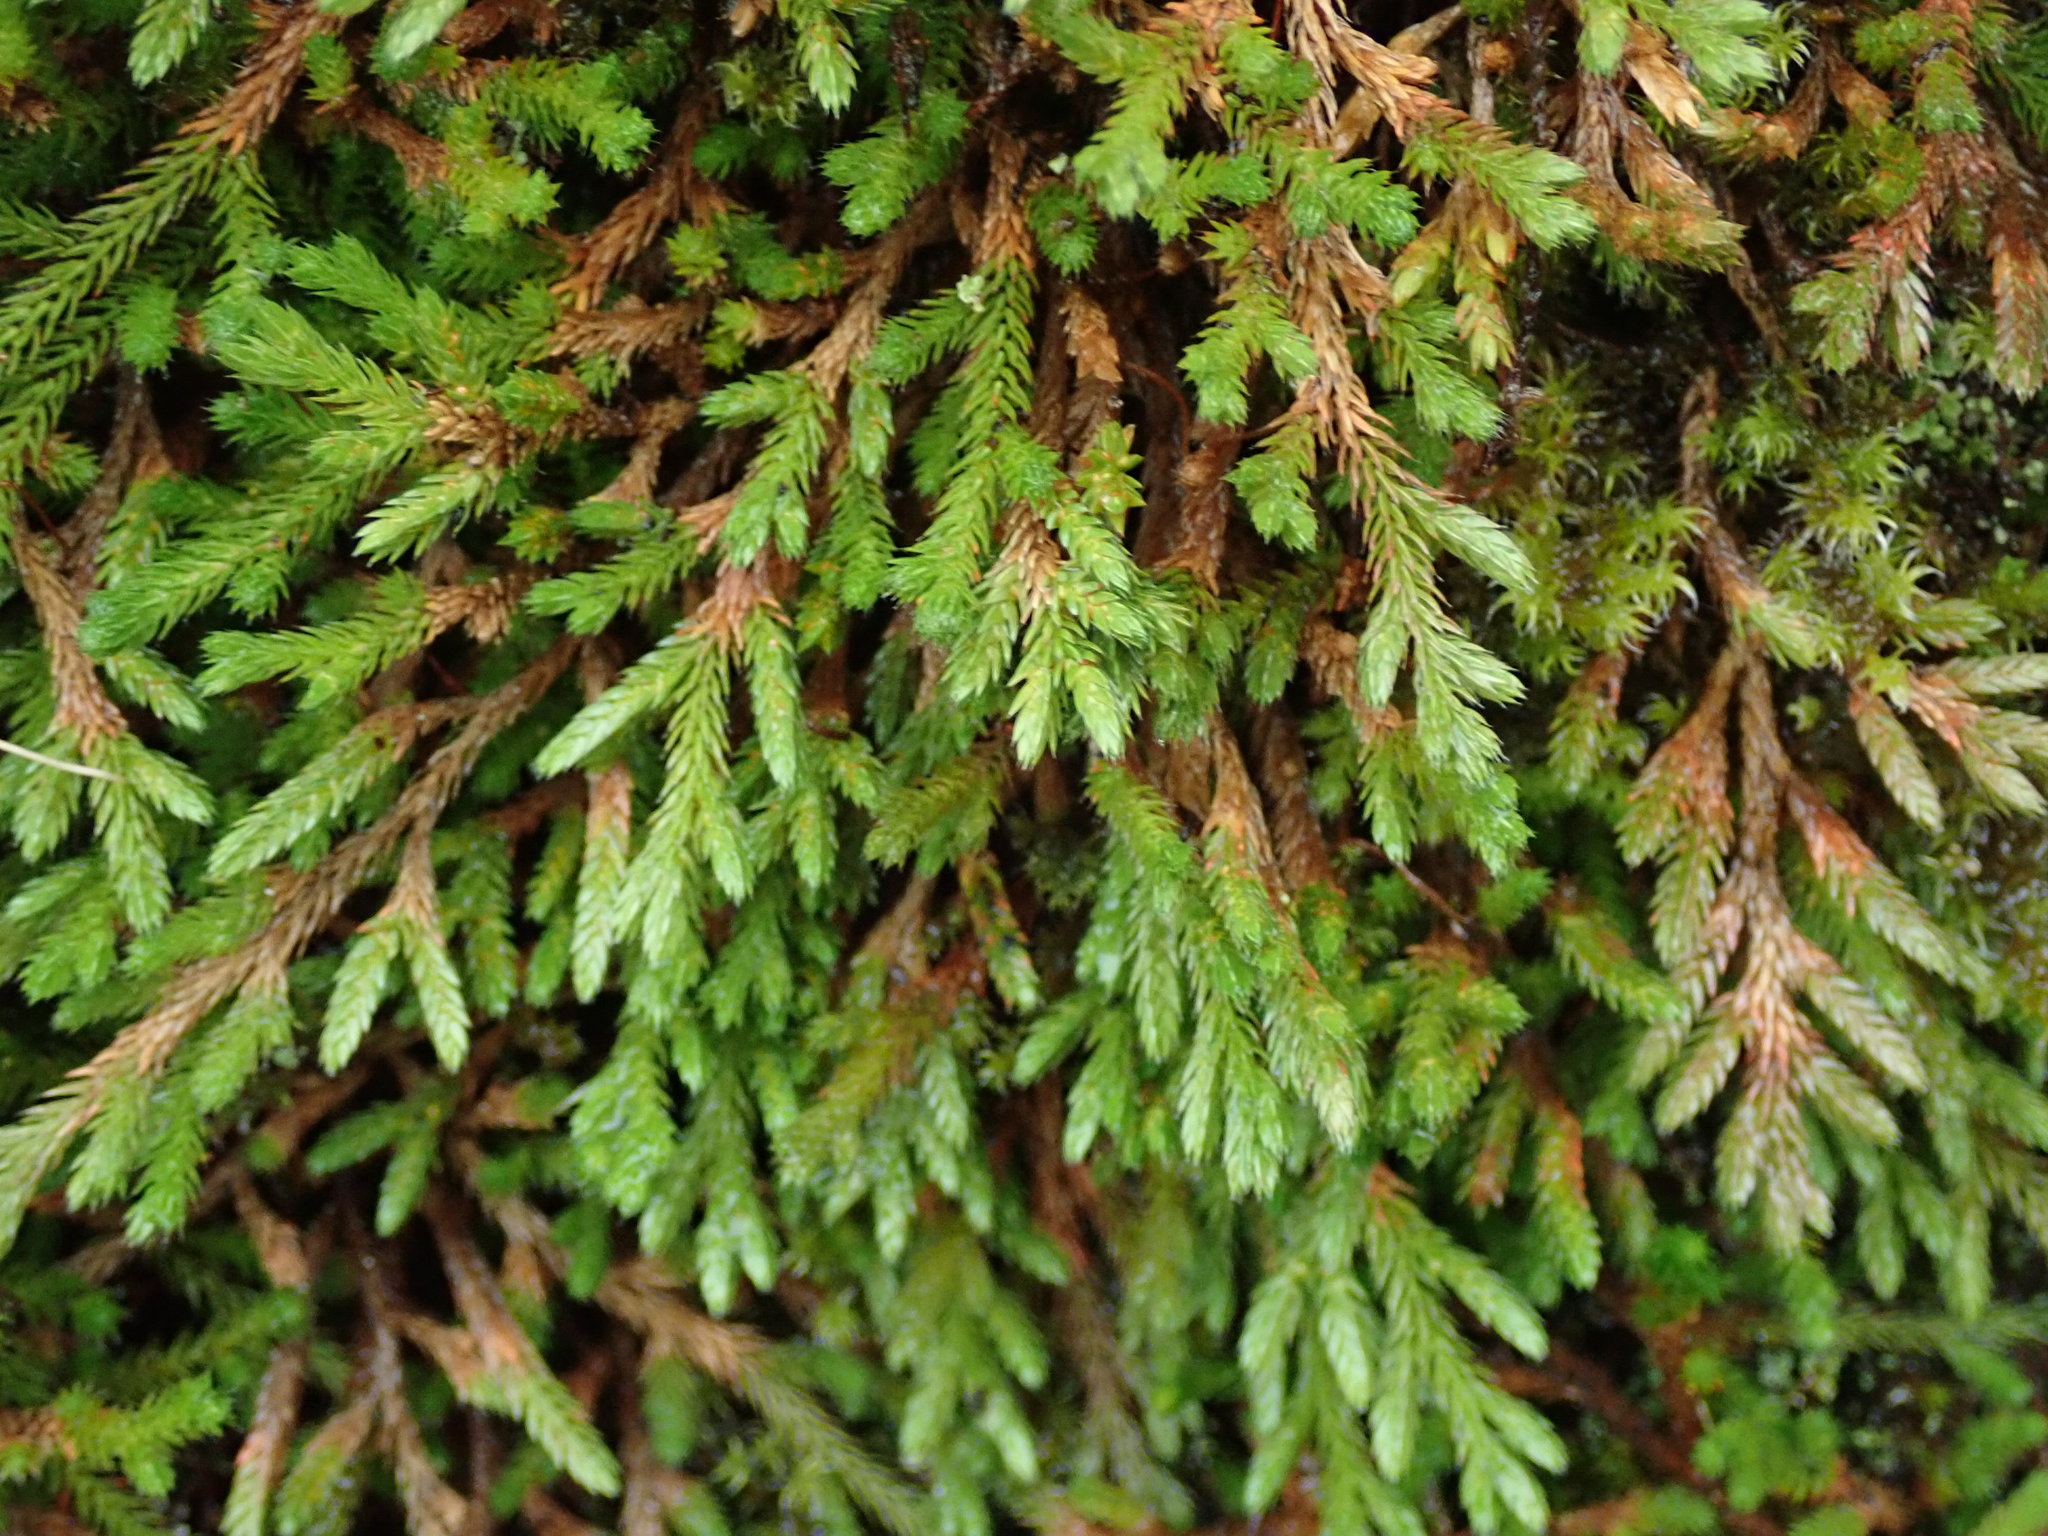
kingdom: Plantae
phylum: Tracheophyta
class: Lycopodiopsida
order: Selaginellales
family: Selaginellaceae
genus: Selaginella
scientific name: Selaginella wallacei
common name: Wallace's selaginella
